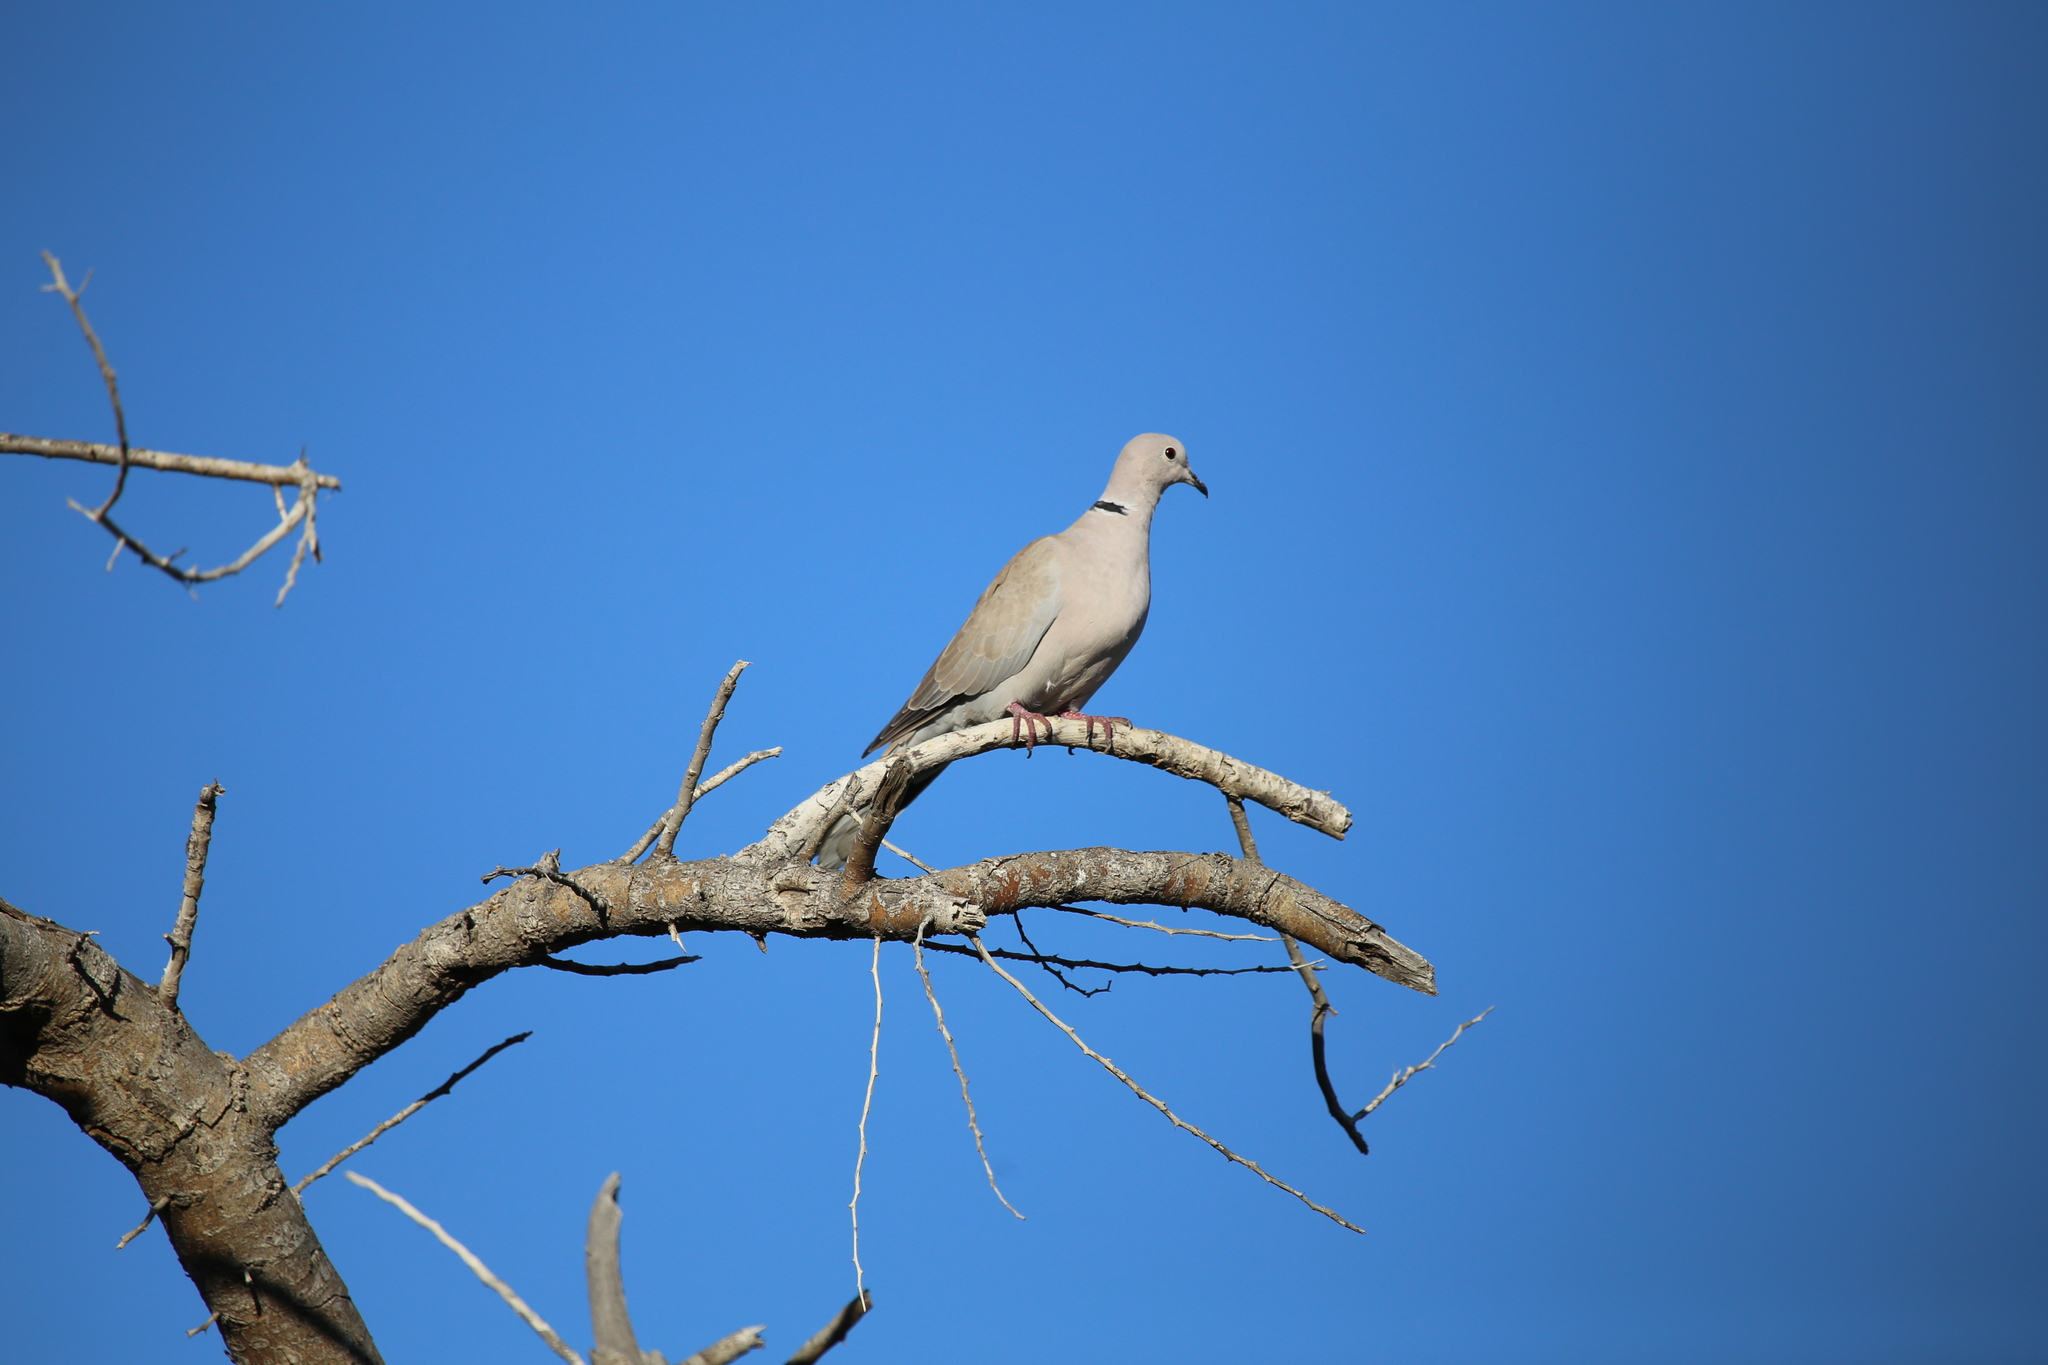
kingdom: Animalia
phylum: Chordata
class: Aves
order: Columbiformes
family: Columbidae
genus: Streptopelia
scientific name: Streptopelia decaocto
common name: Eurasian collared dove
